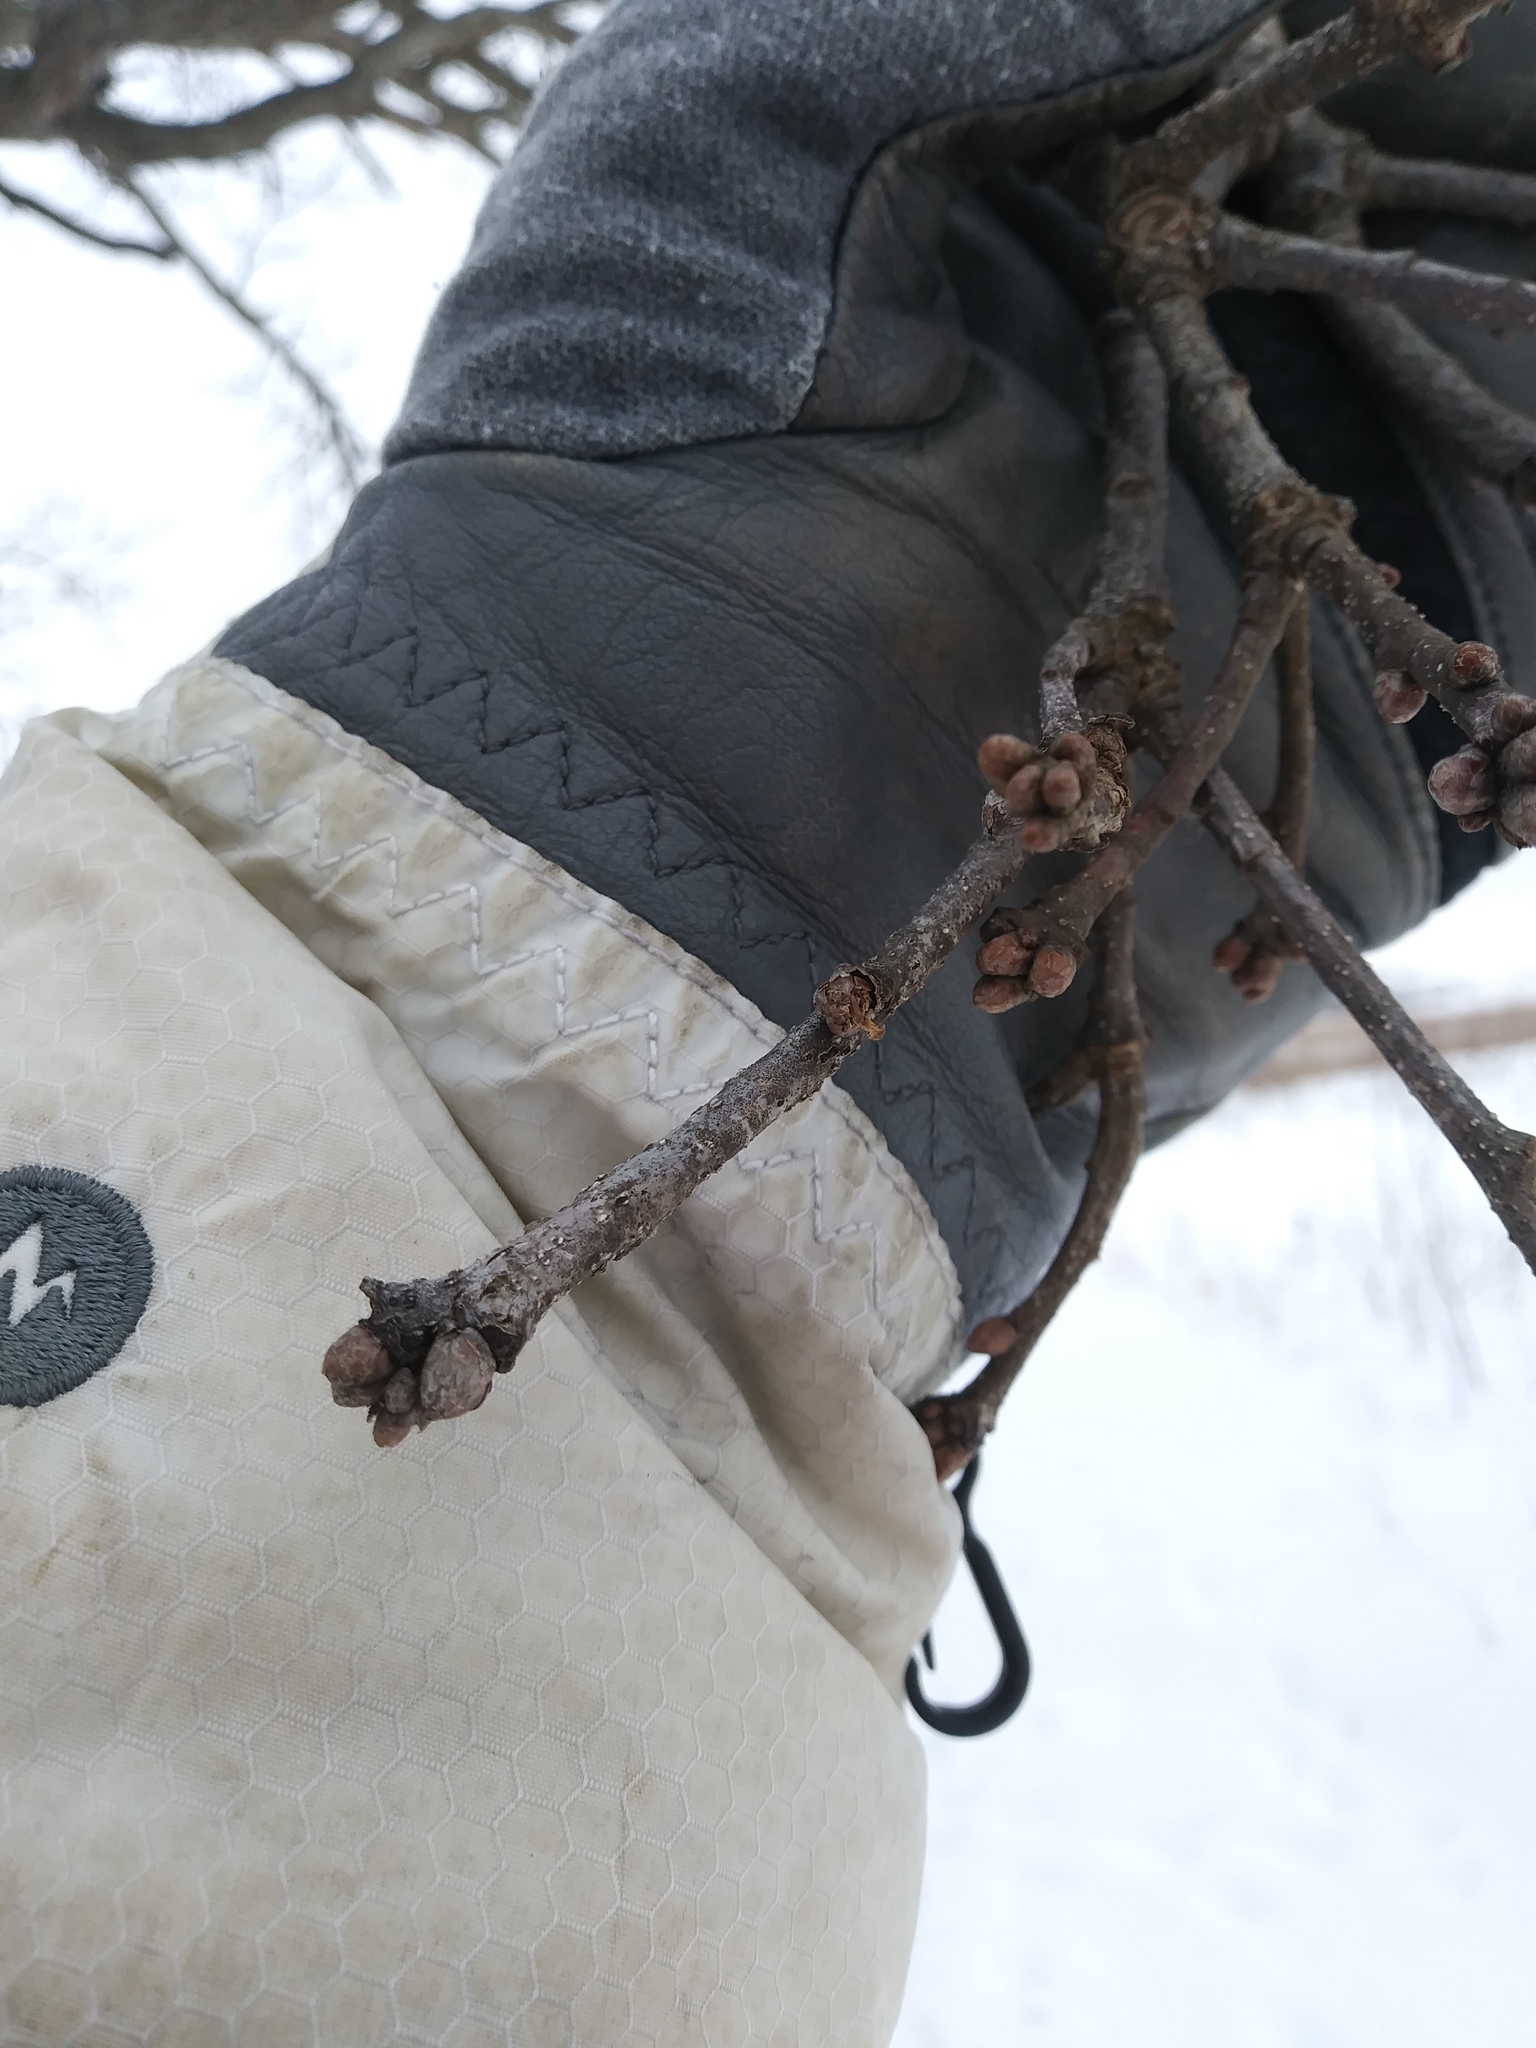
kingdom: Plantae
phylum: Tracheophyta
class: Magnoliopsida
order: Fagales
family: Fagaceae
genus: Quercus
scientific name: Quercus alba
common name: White oak
